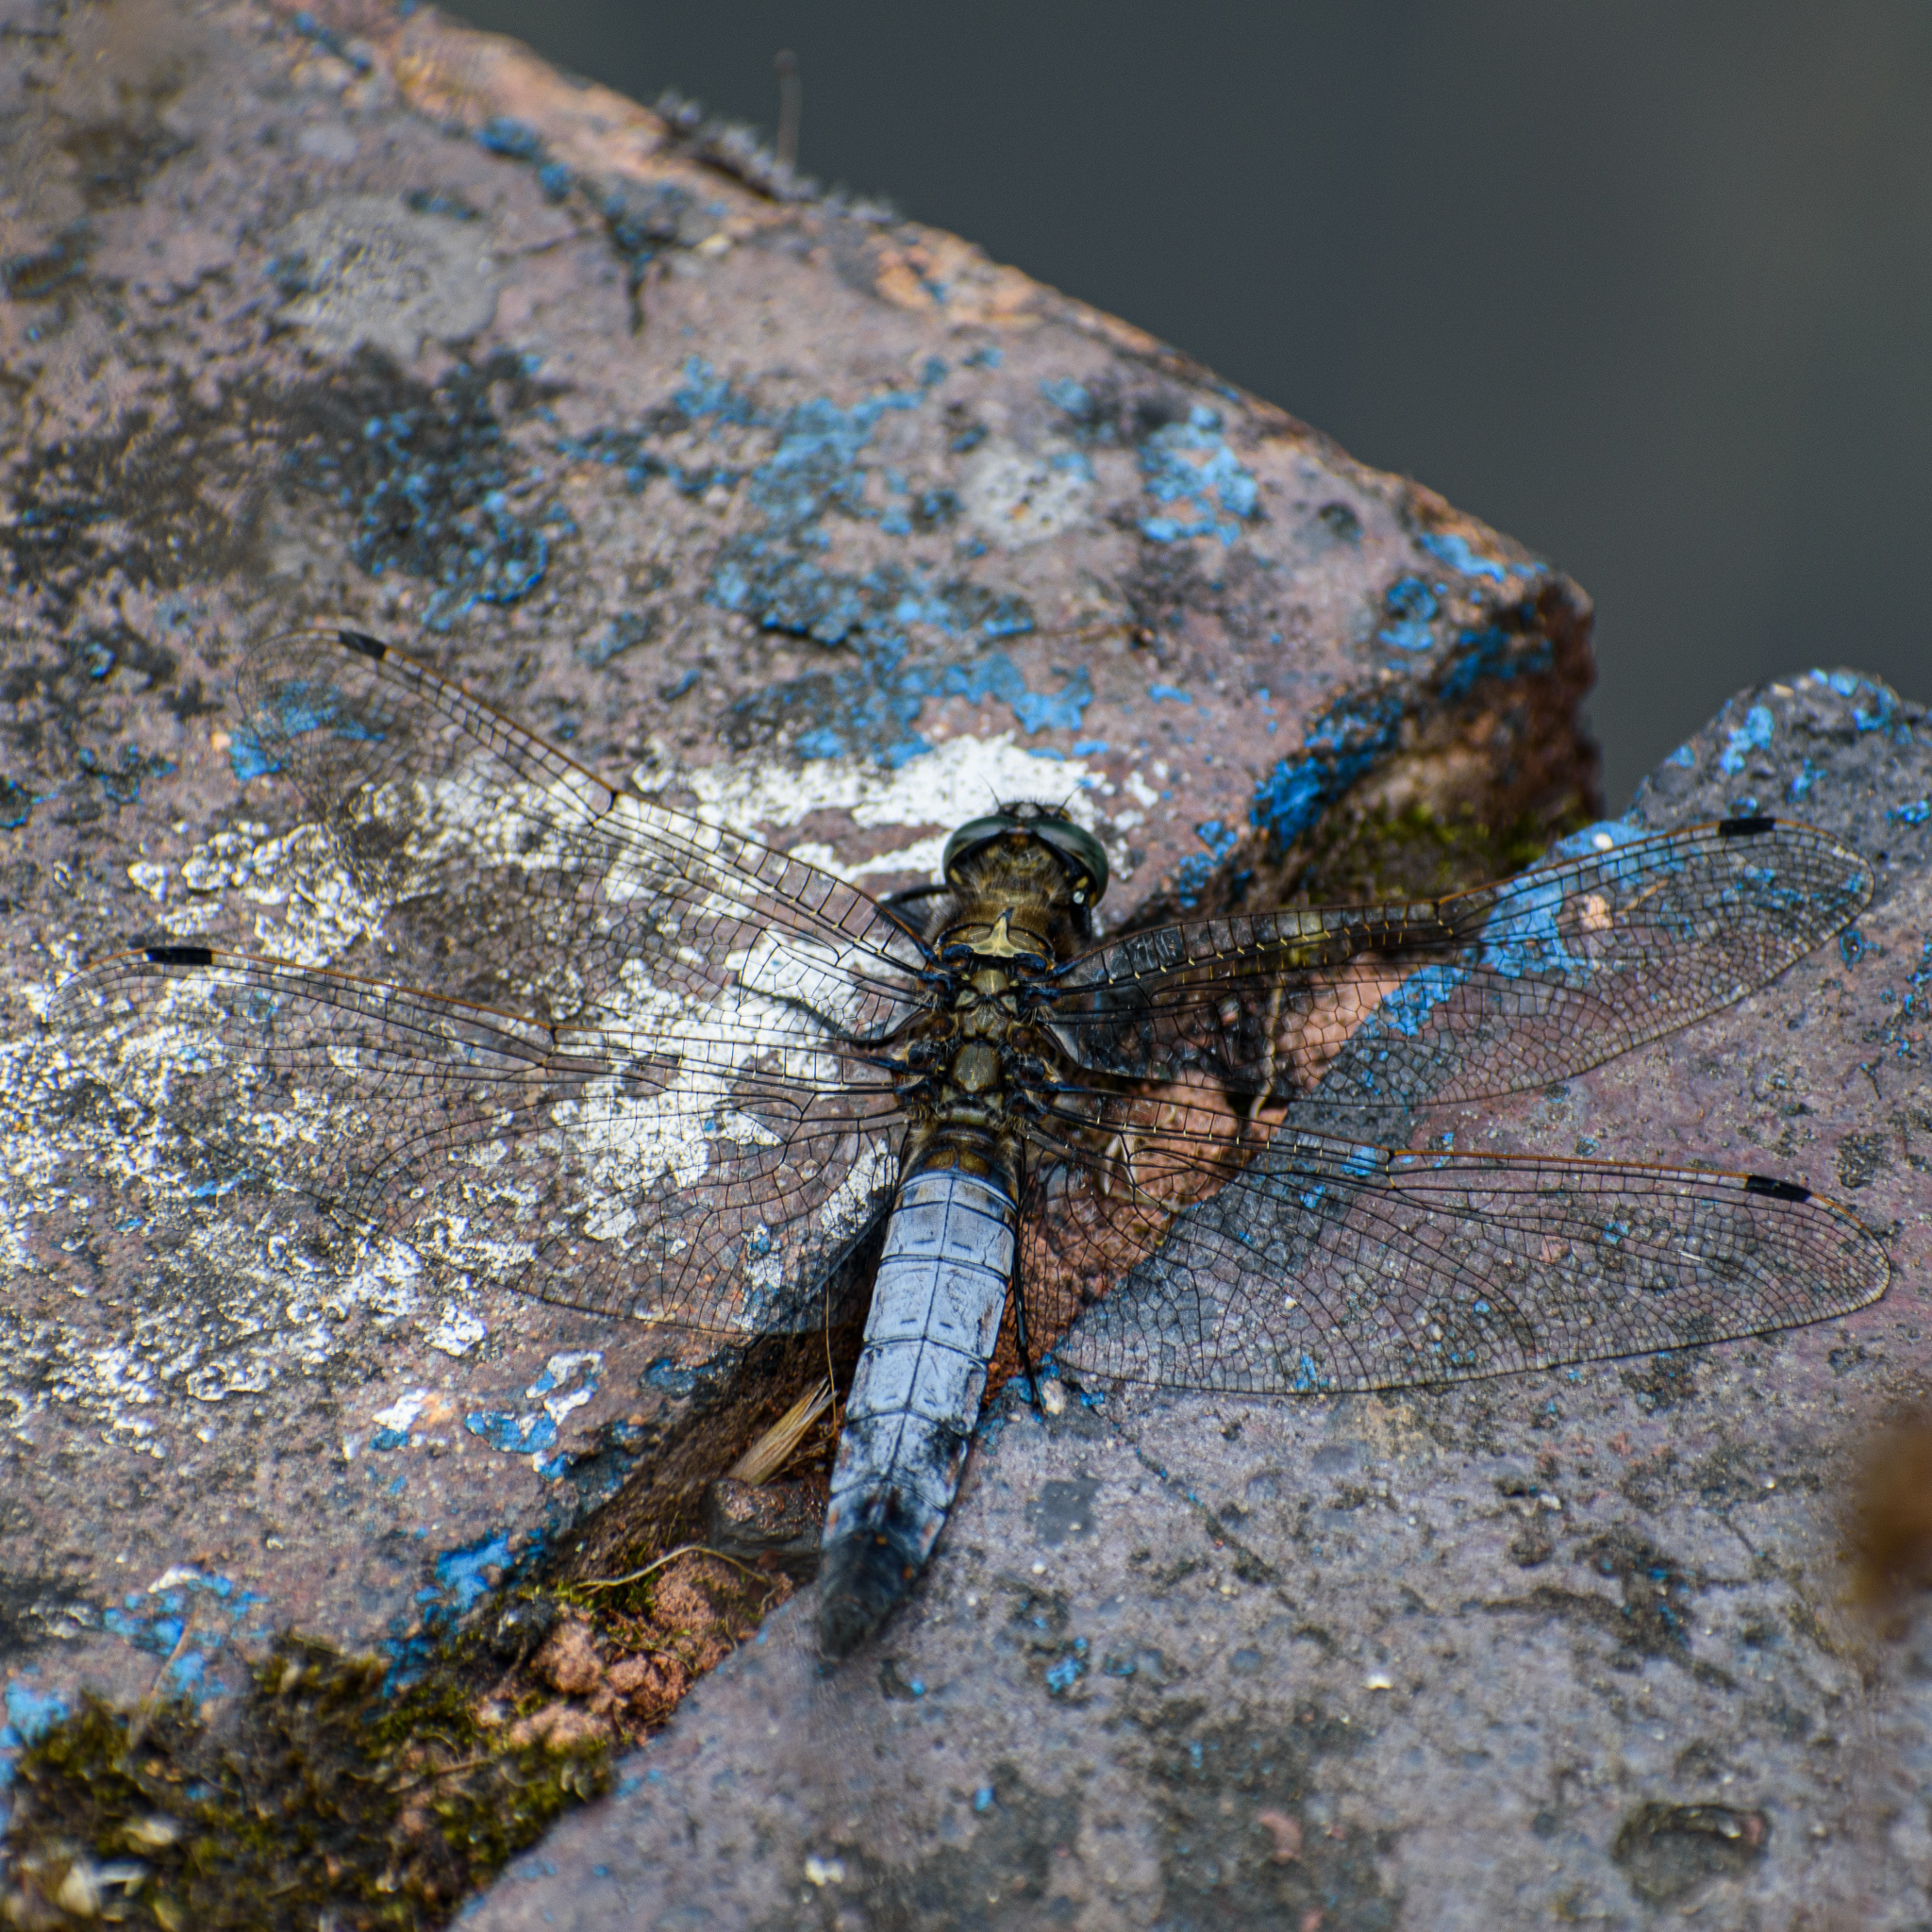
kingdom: Animalia
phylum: Arthropoda
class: Insecta
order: Odonata
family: Libellulidae
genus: Orthetrum
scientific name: Orthetrum cancellatum
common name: Black-tailed skimmer
